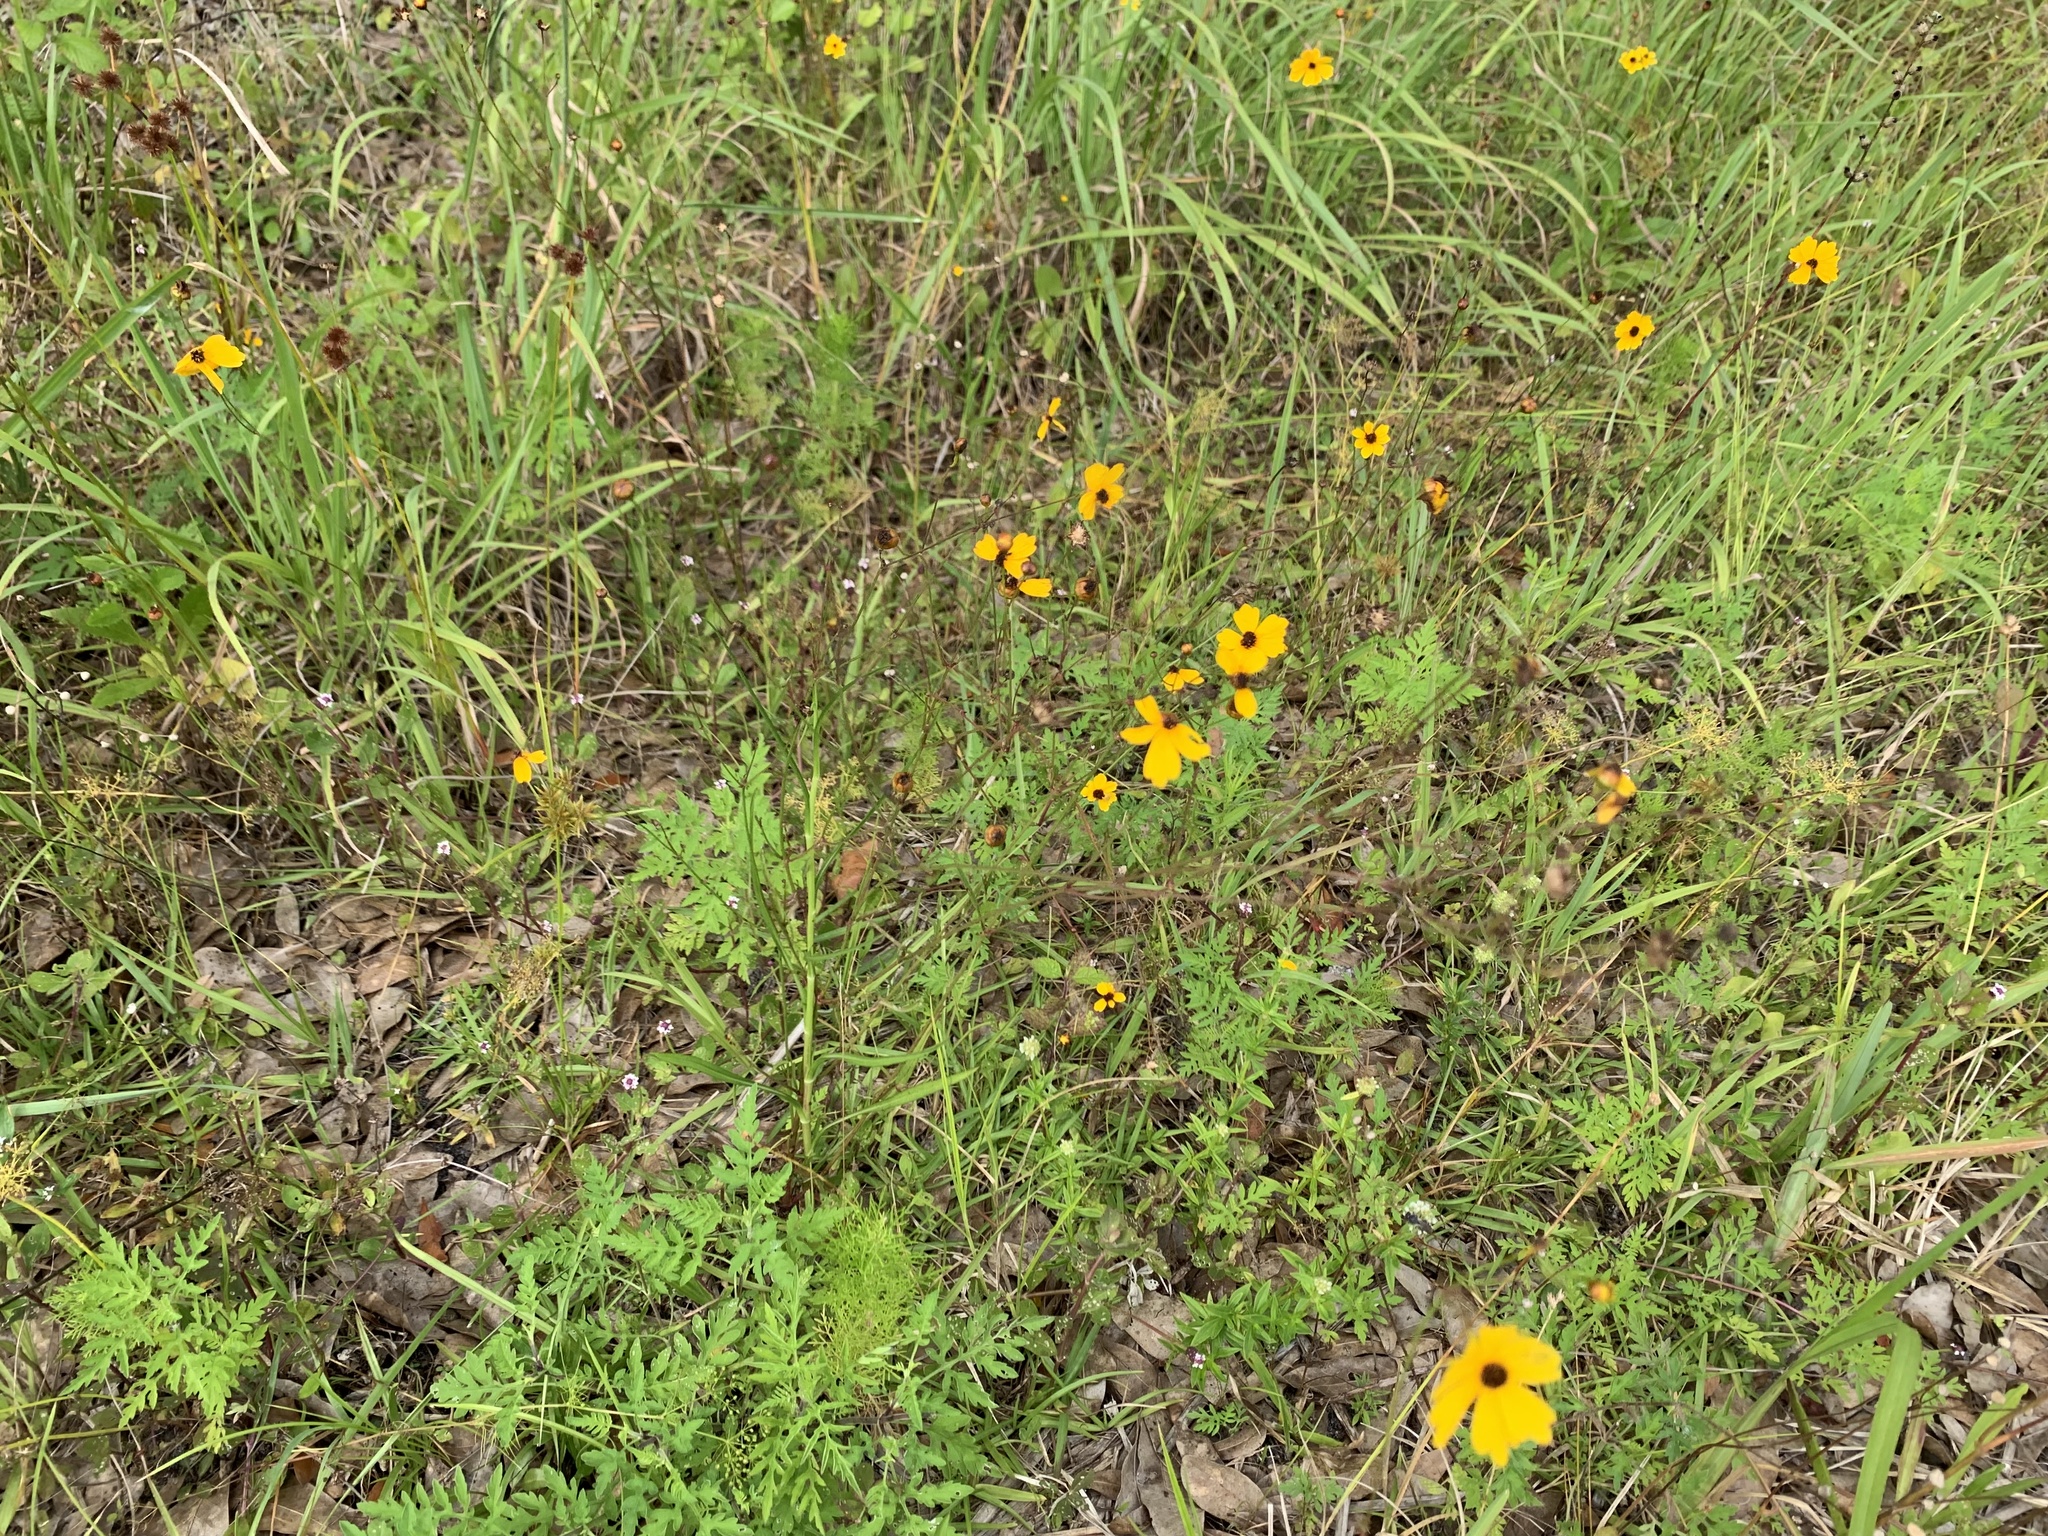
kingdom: Plantae
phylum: Tracheophyta
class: Magnoliopsida
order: Asterales
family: Asteraceae
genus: Coreopsis
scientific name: Coreopsis leavenworthii
